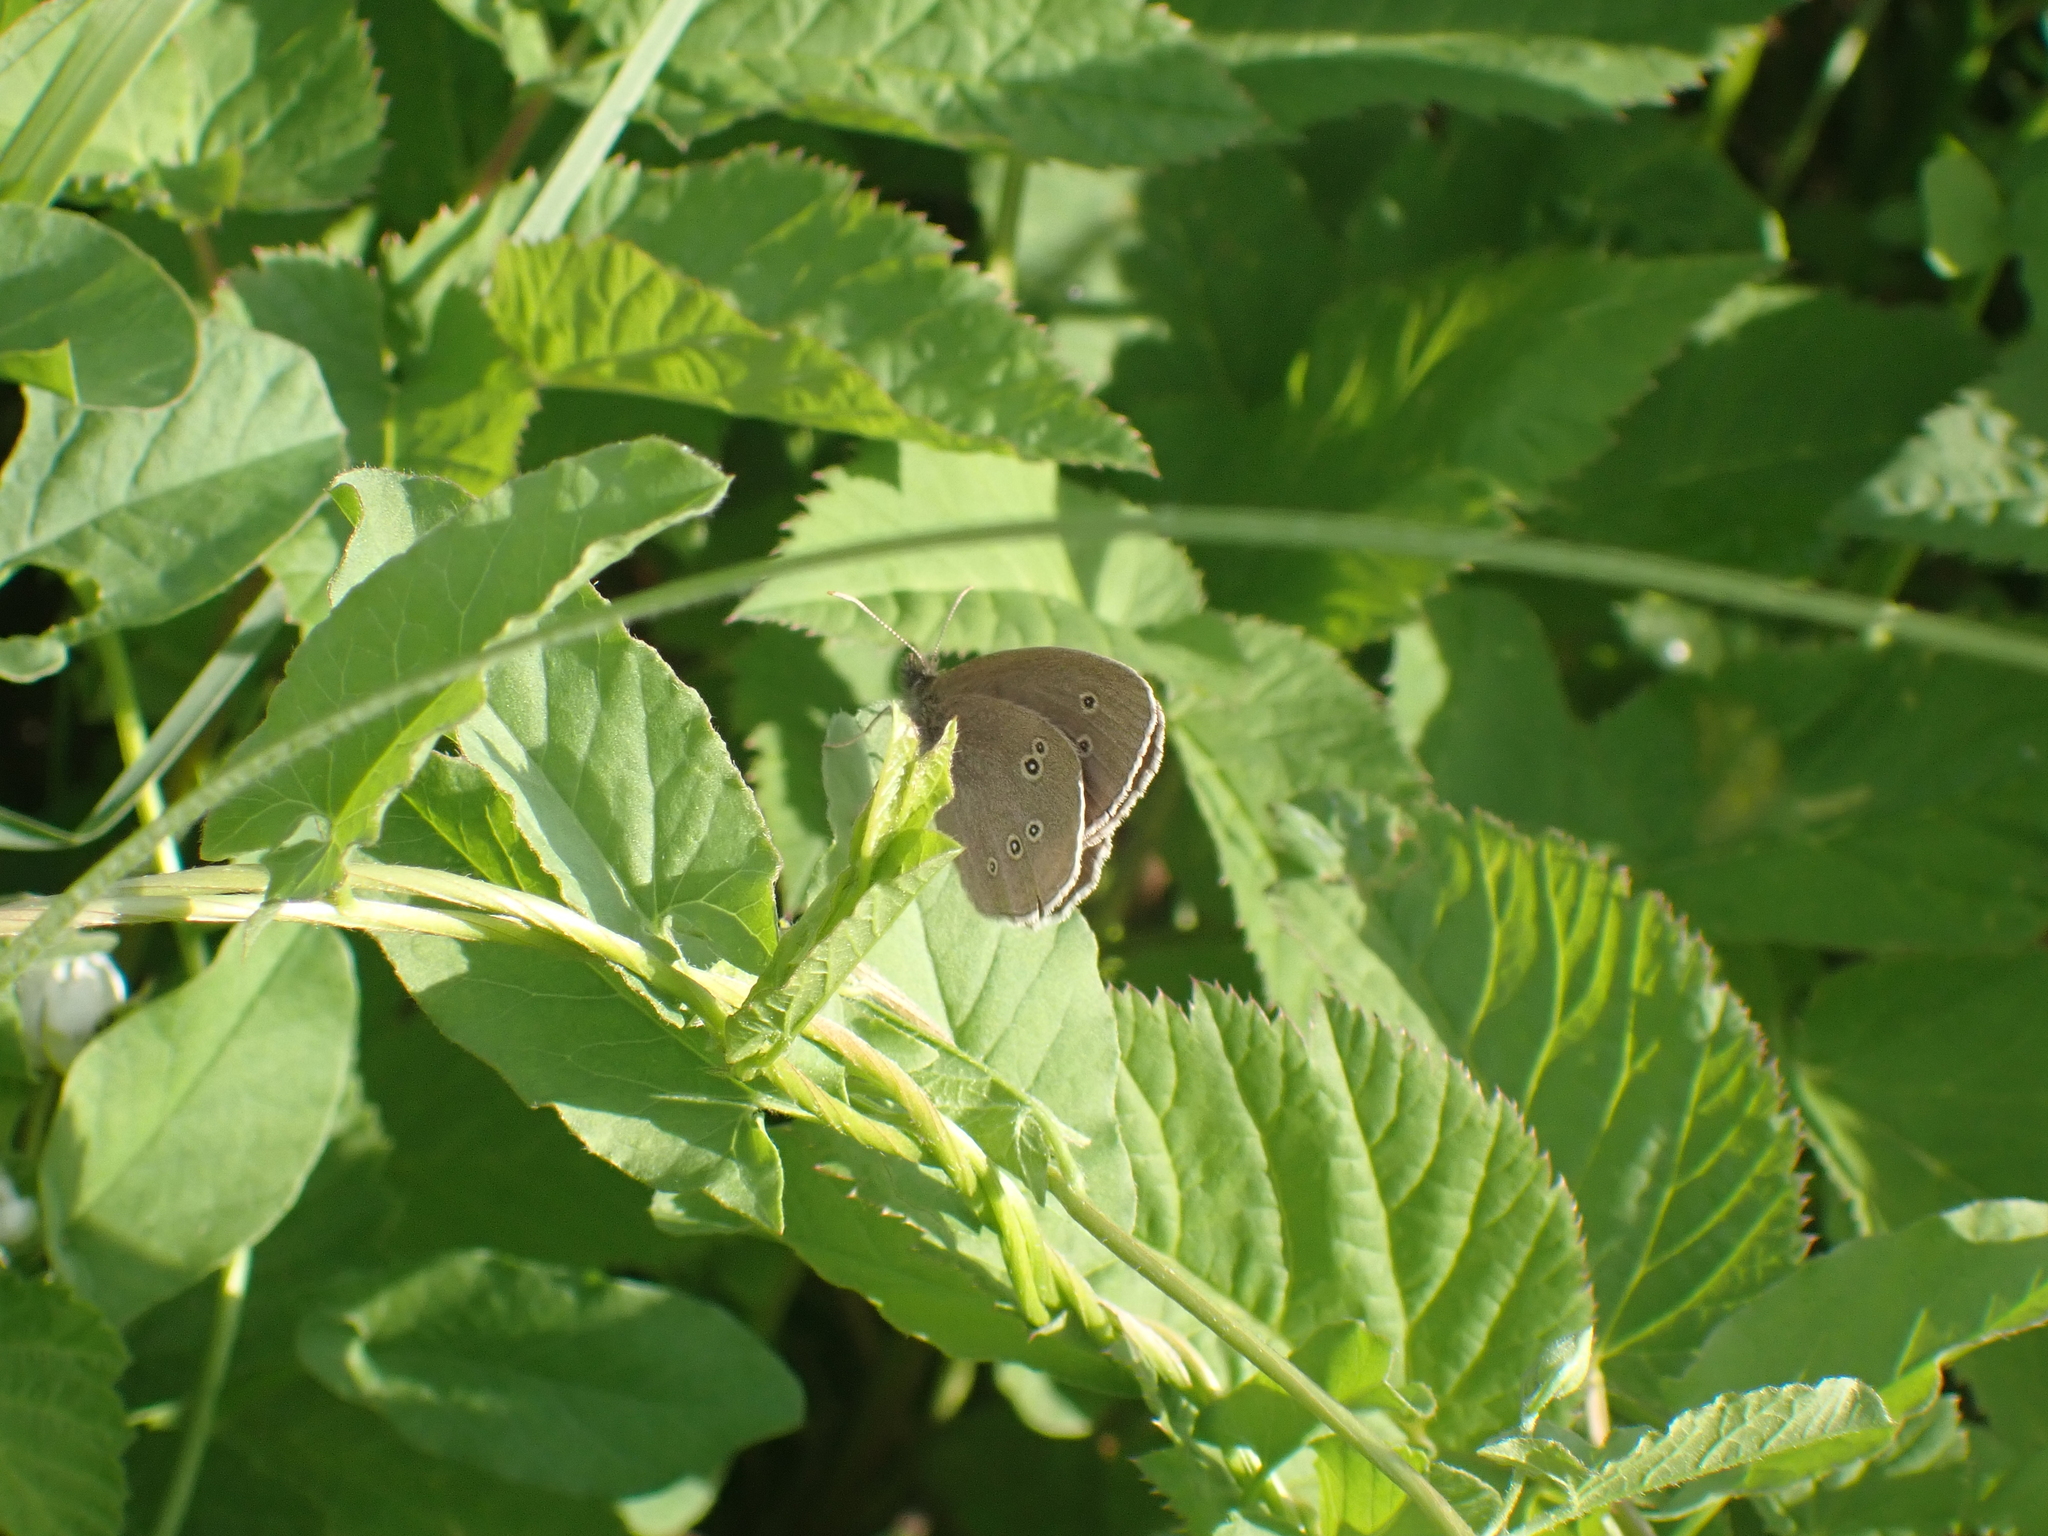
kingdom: Animalia
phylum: Arthropoda
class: Insecta
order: Lepidoptera
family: Nymphalidae
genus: Aphantopus
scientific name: Aphantopus hyperantus
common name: Ringlet
